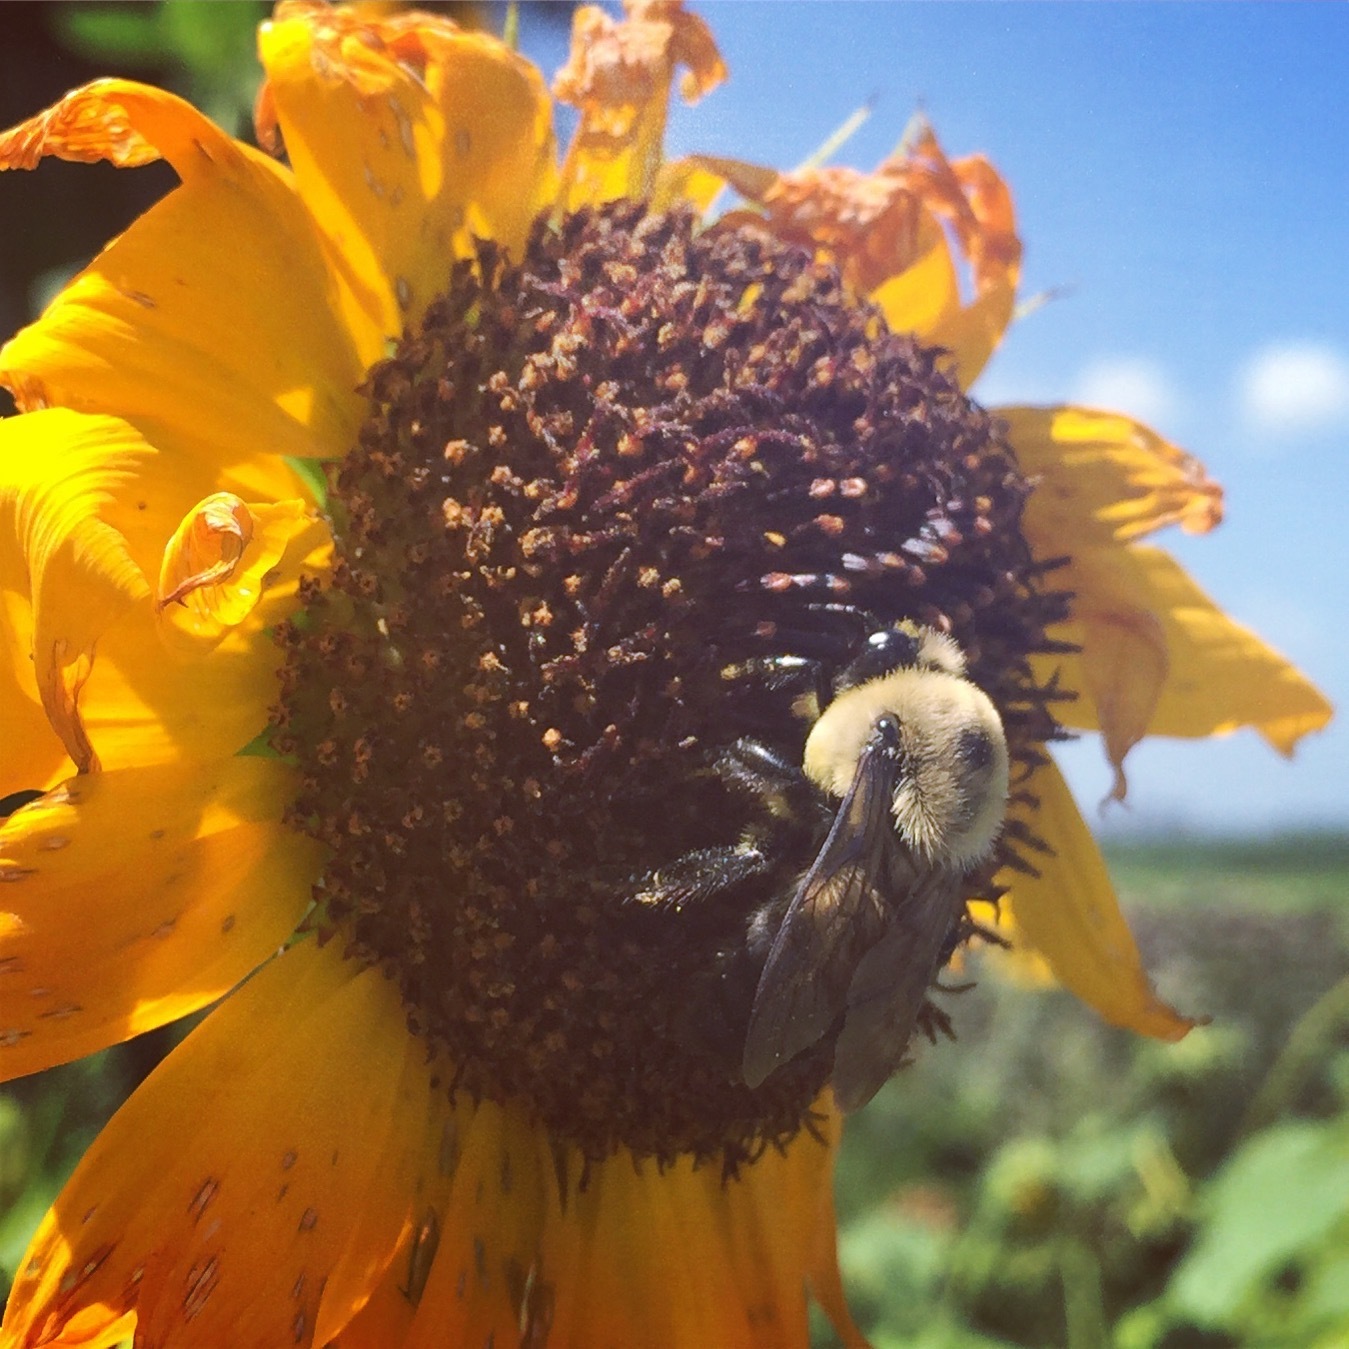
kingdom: Animalia
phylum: Arthropoda
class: Insecta
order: Hymenoptera
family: Apidae
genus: Bombus
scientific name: Bombus griseocollis
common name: Brown-belted bumble bee
